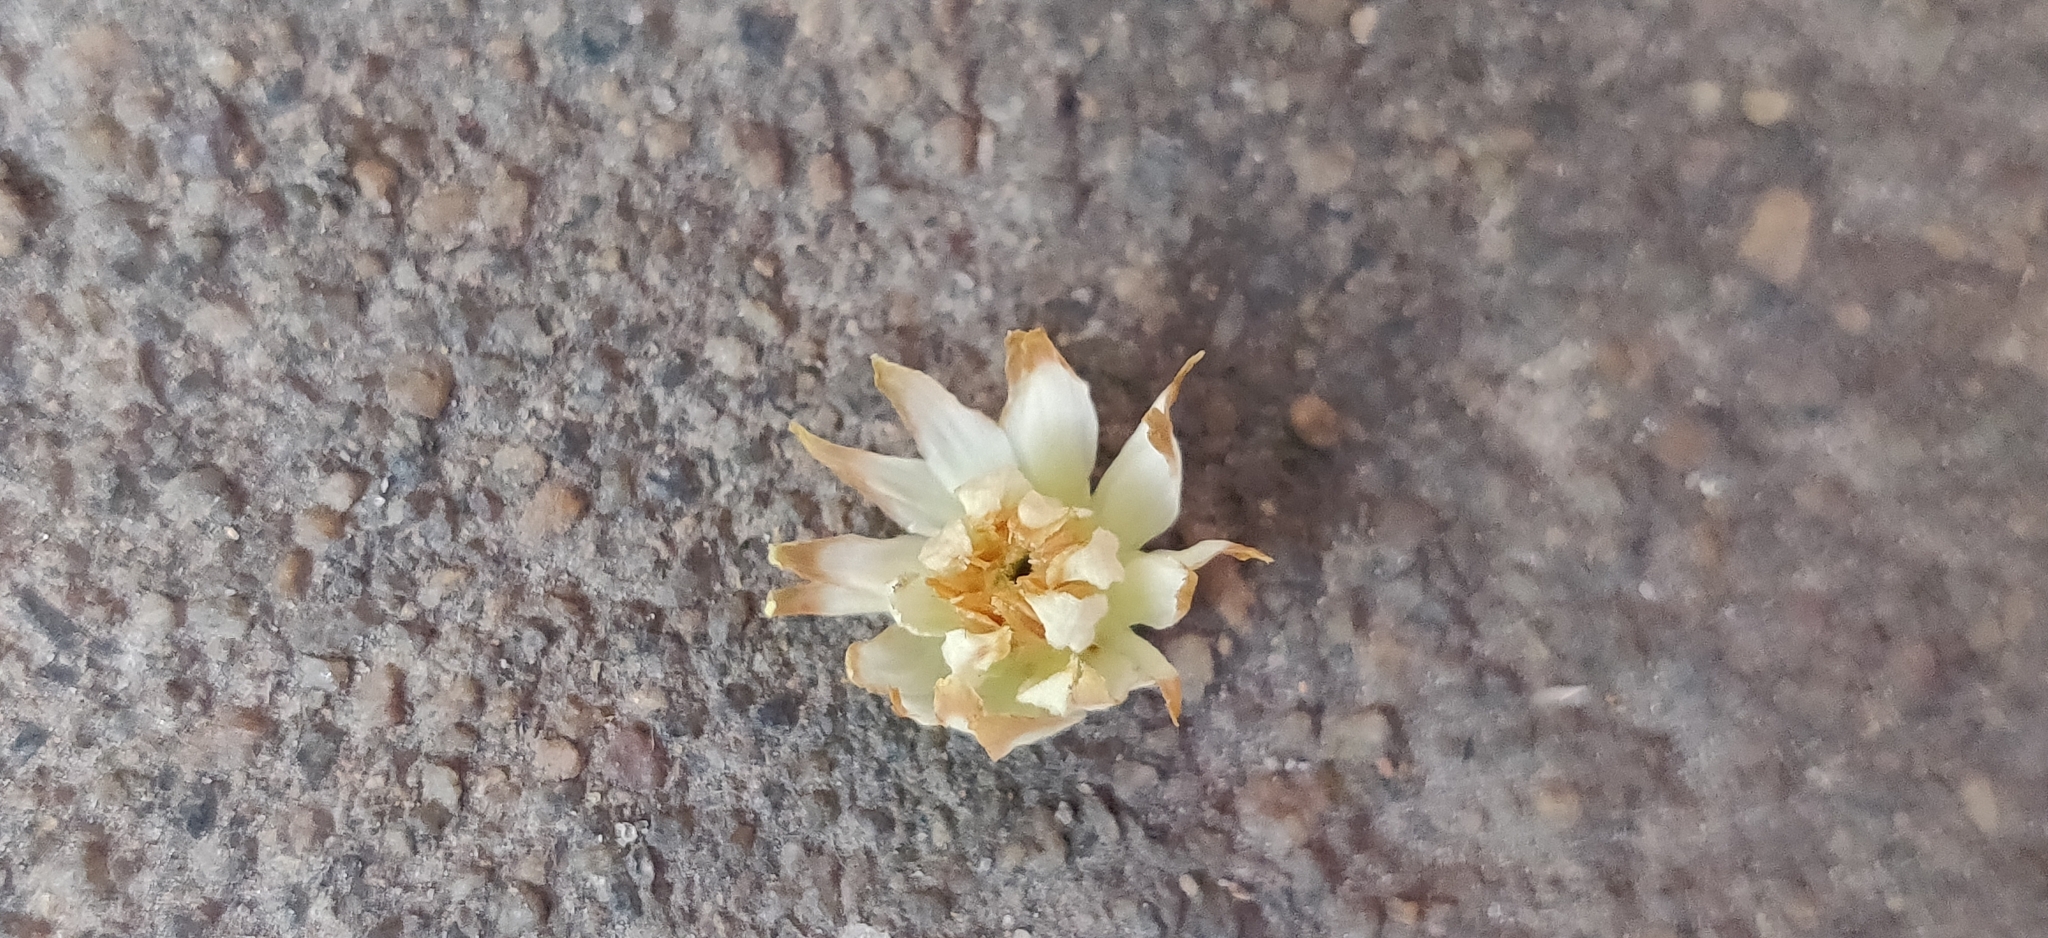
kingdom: Plantae
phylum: Tracheophyta
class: Magnoliopsida
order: Ericales
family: Sapotaceae
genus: Mimusops
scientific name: Mimusops elengi
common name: Spanish cherry
